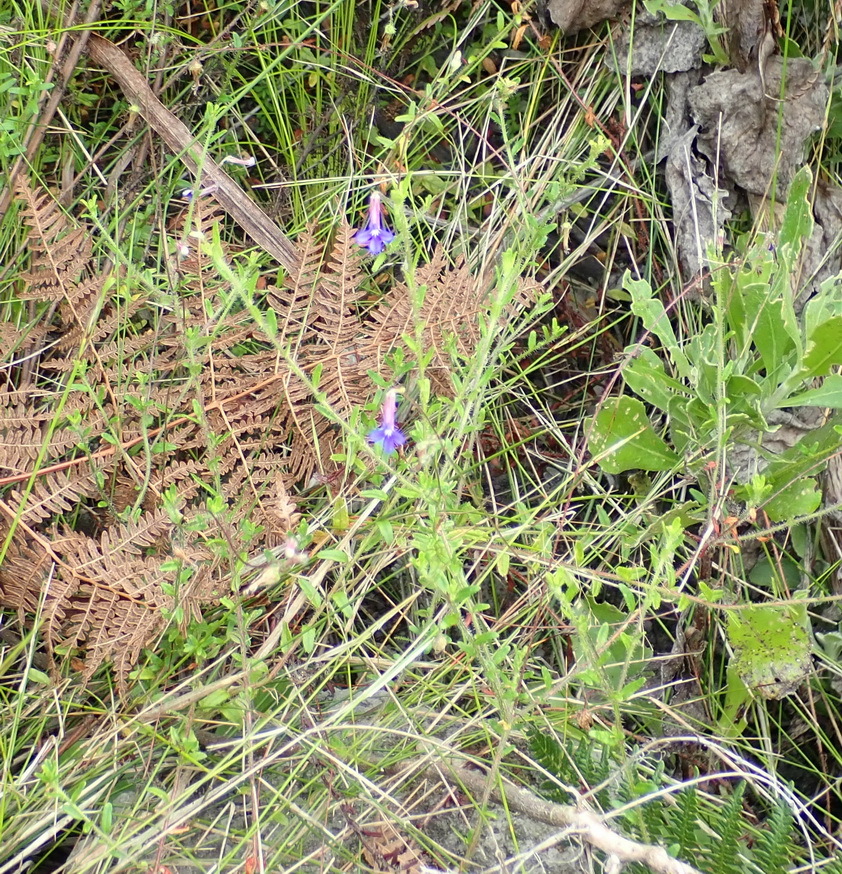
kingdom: Plantae
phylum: Tracheophyta
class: Magnoliopsida
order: Asterales
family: Campanulaceae
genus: Lobelia
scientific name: Lobelia neglecta
